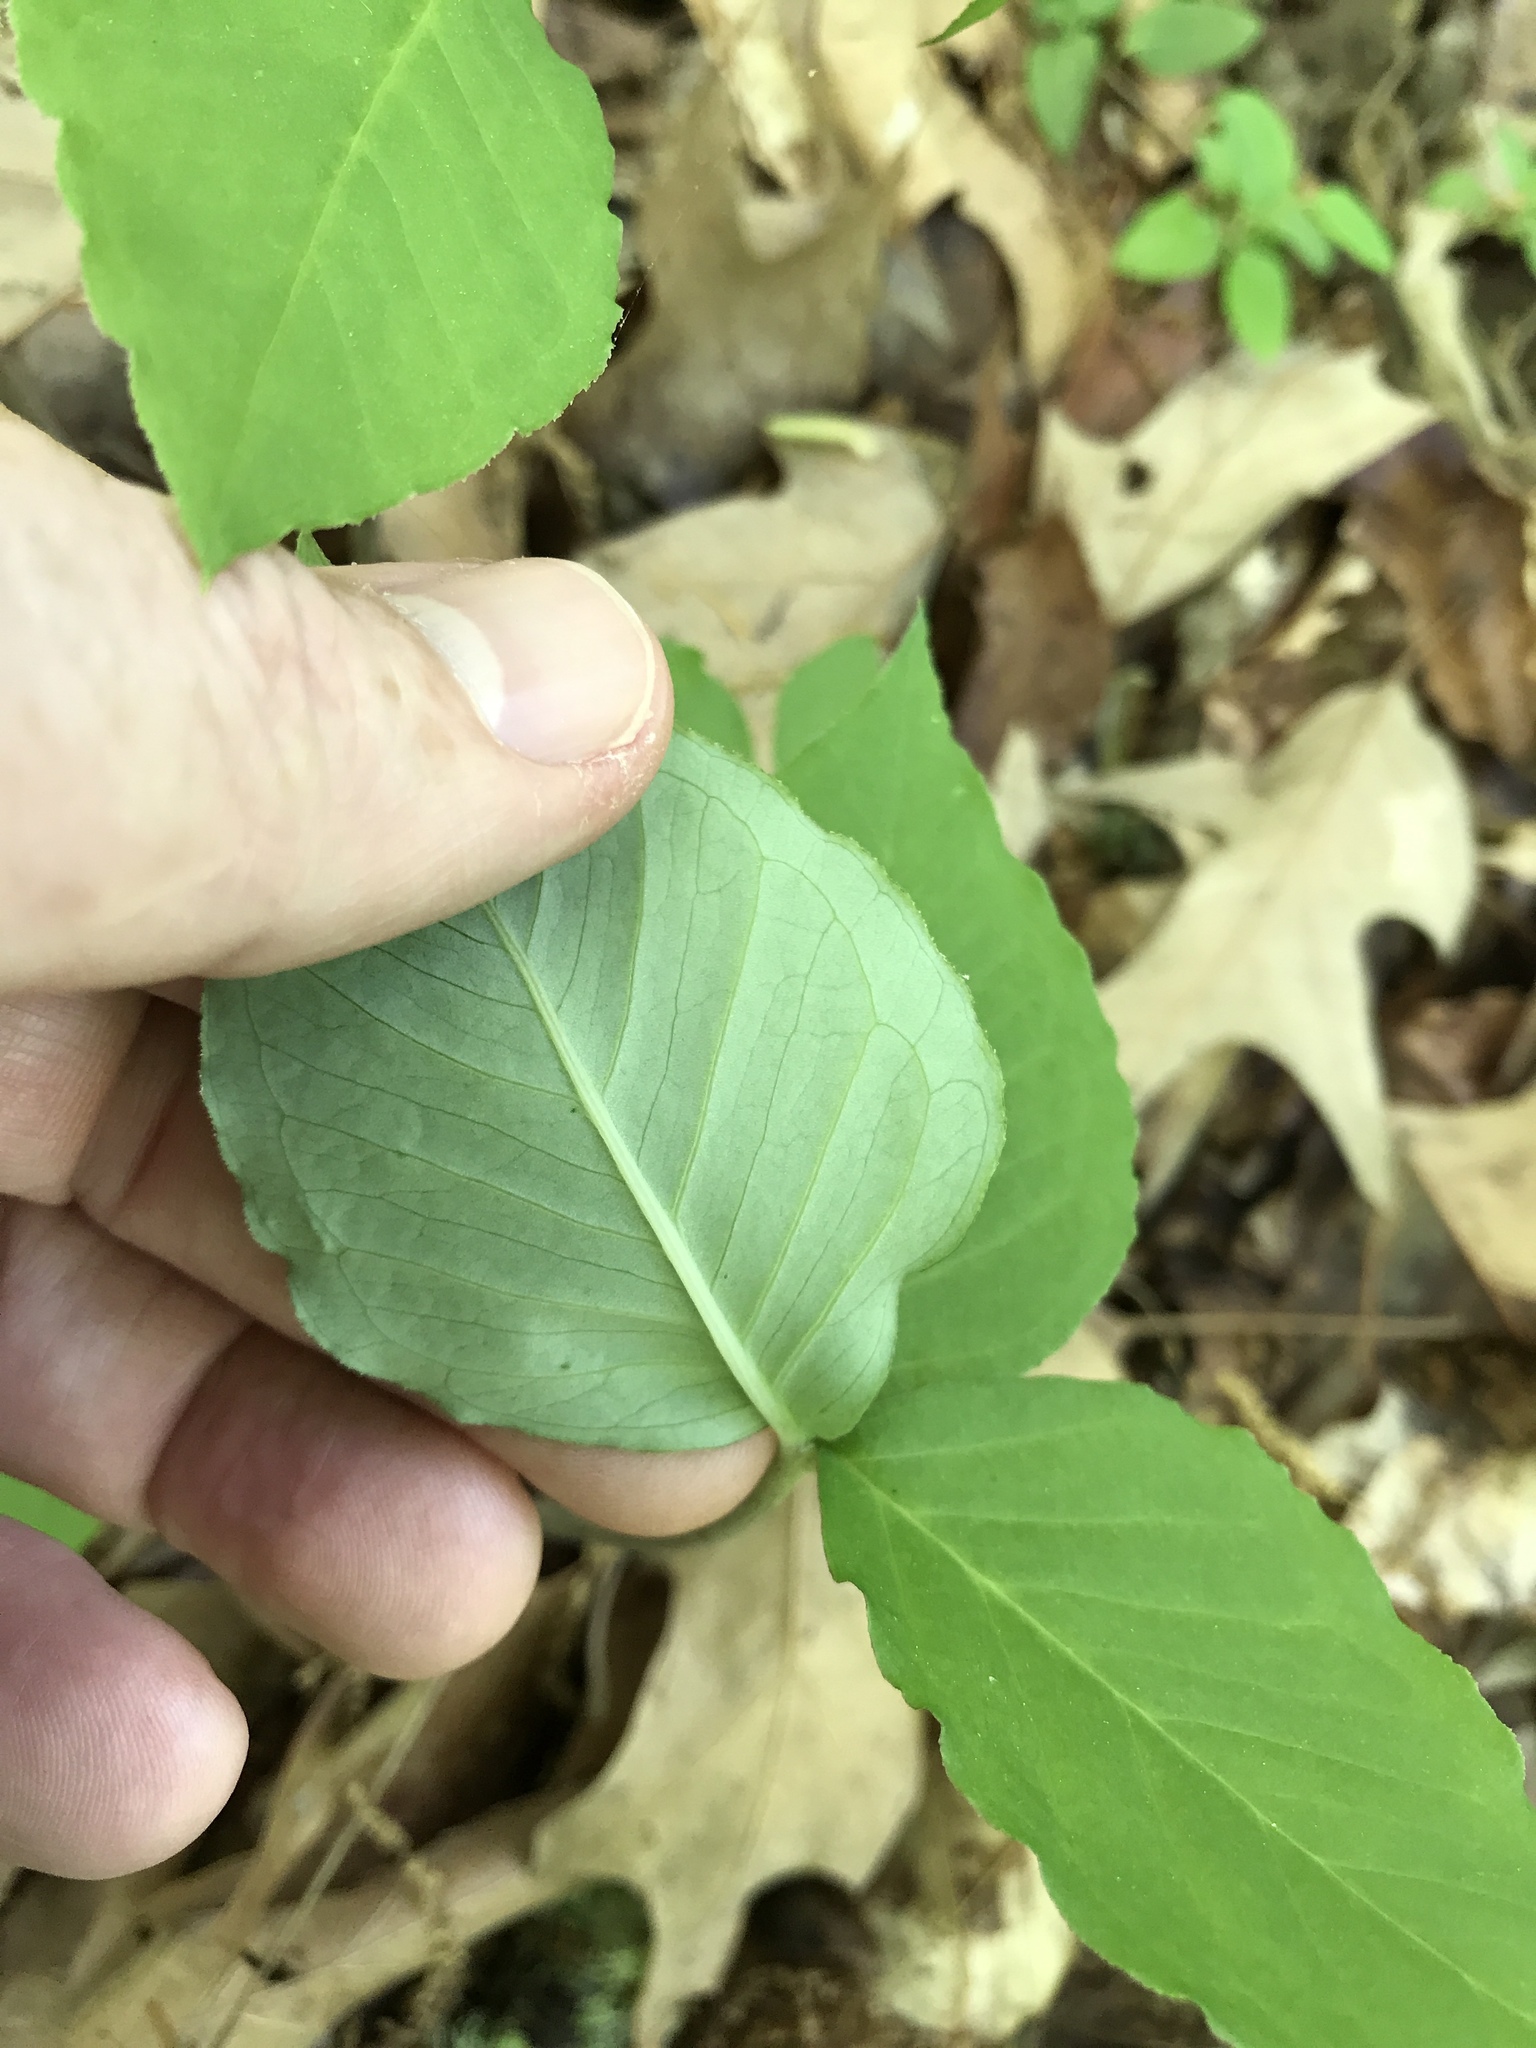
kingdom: Plantae
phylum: Tracheophyta
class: Liliopsida
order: Alismatales
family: Araceae
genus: Arisaema
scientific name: Arisaema triphyllum
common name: Jack-in-the-pulpit
